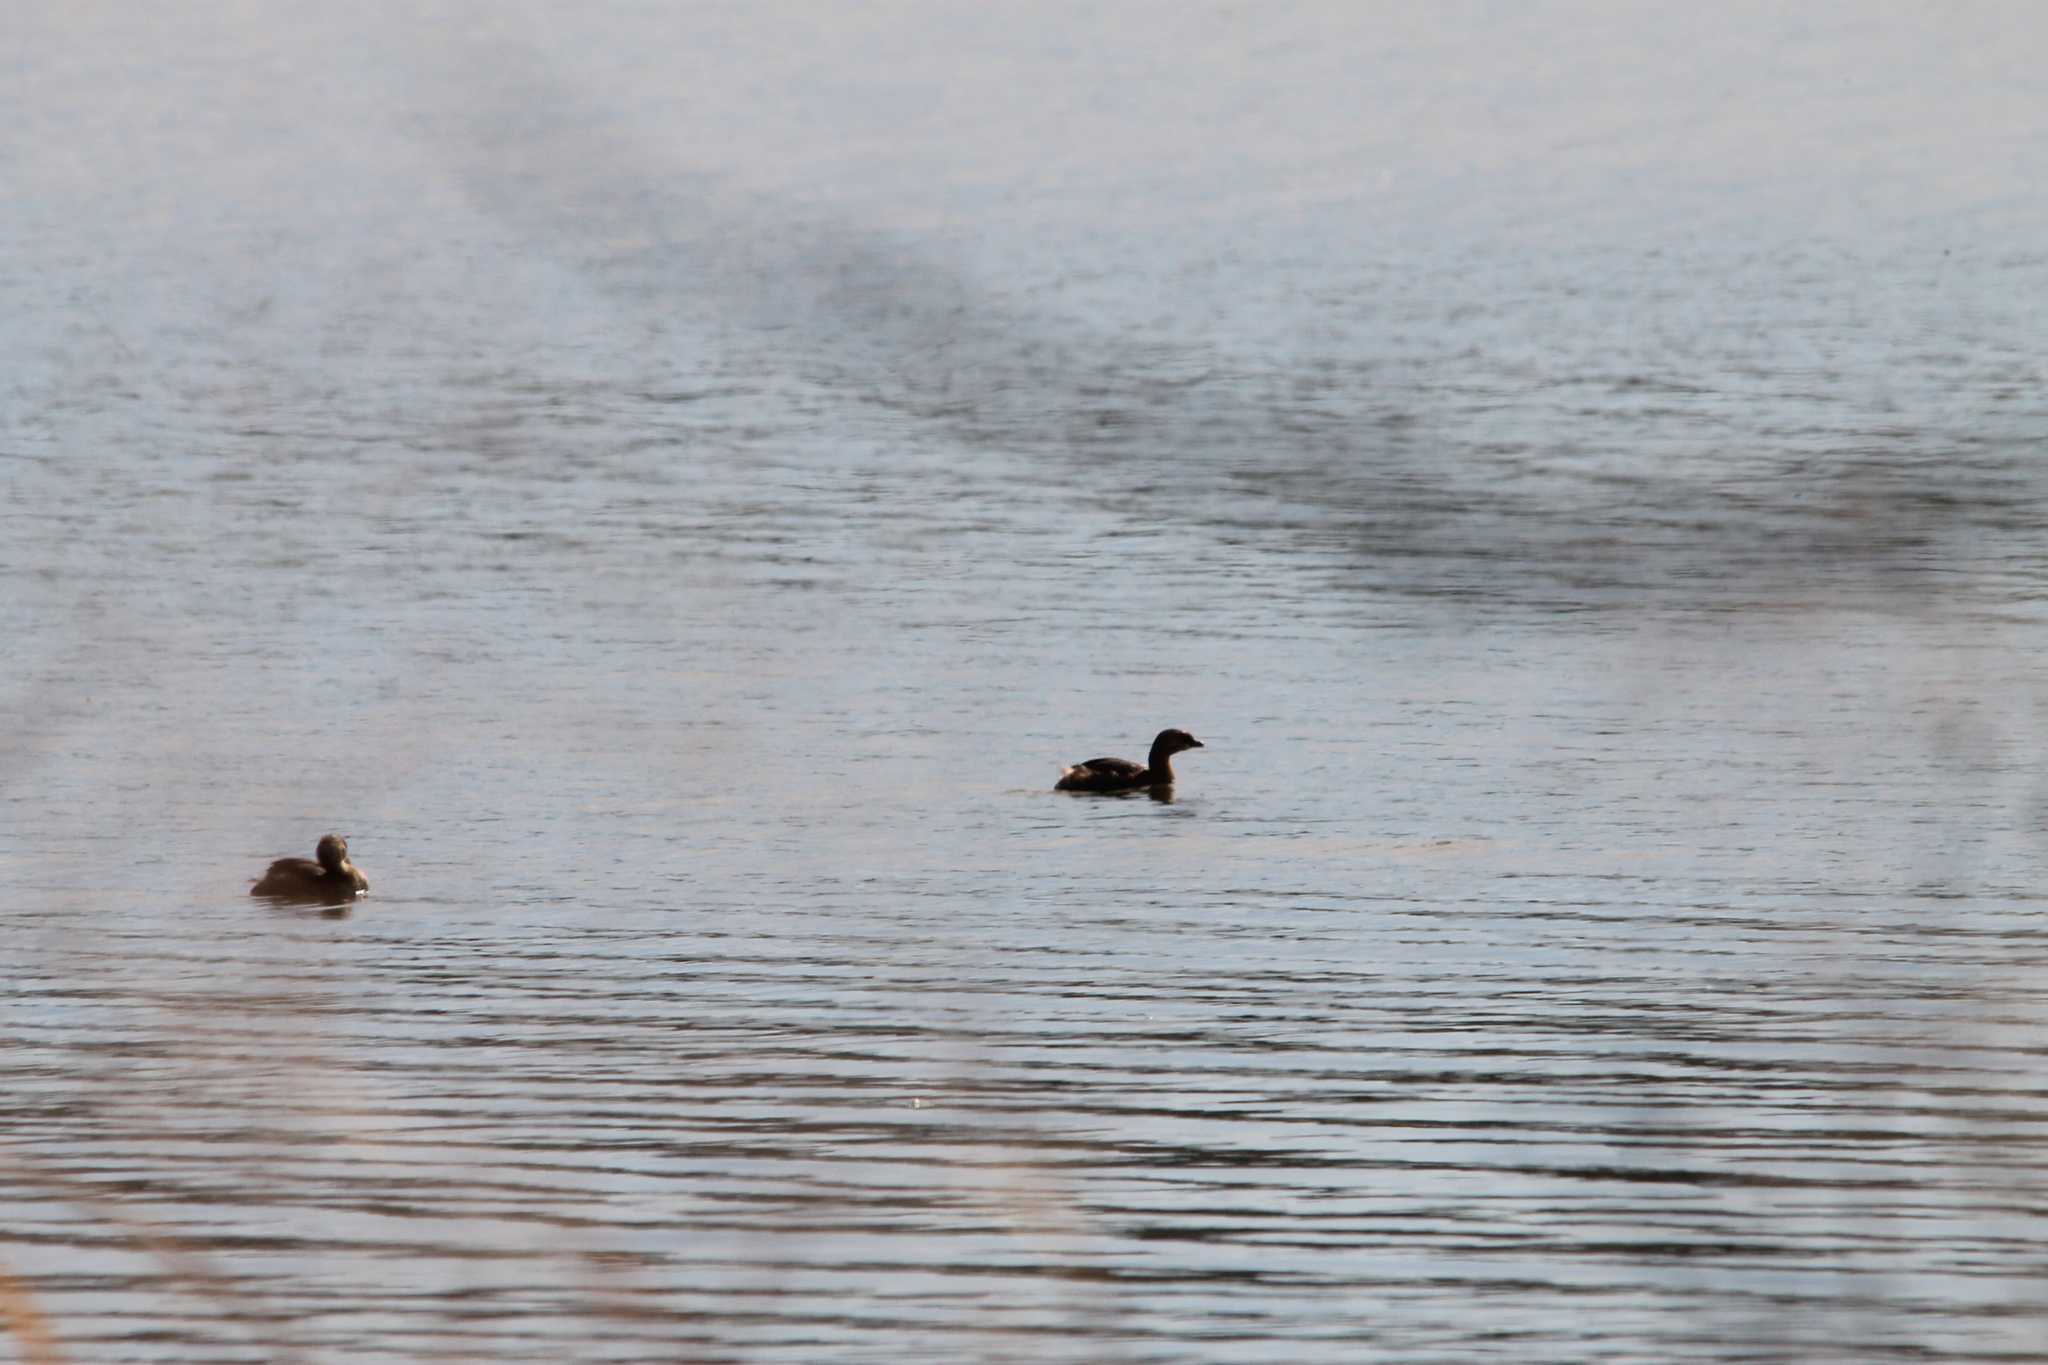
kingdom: Animalia
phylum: Chordata
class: Aves
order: Podicipediformes
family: Podicipedidae
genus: Podilymbus
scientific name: Podilymbus podiceps
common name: Pied-billed grebe
